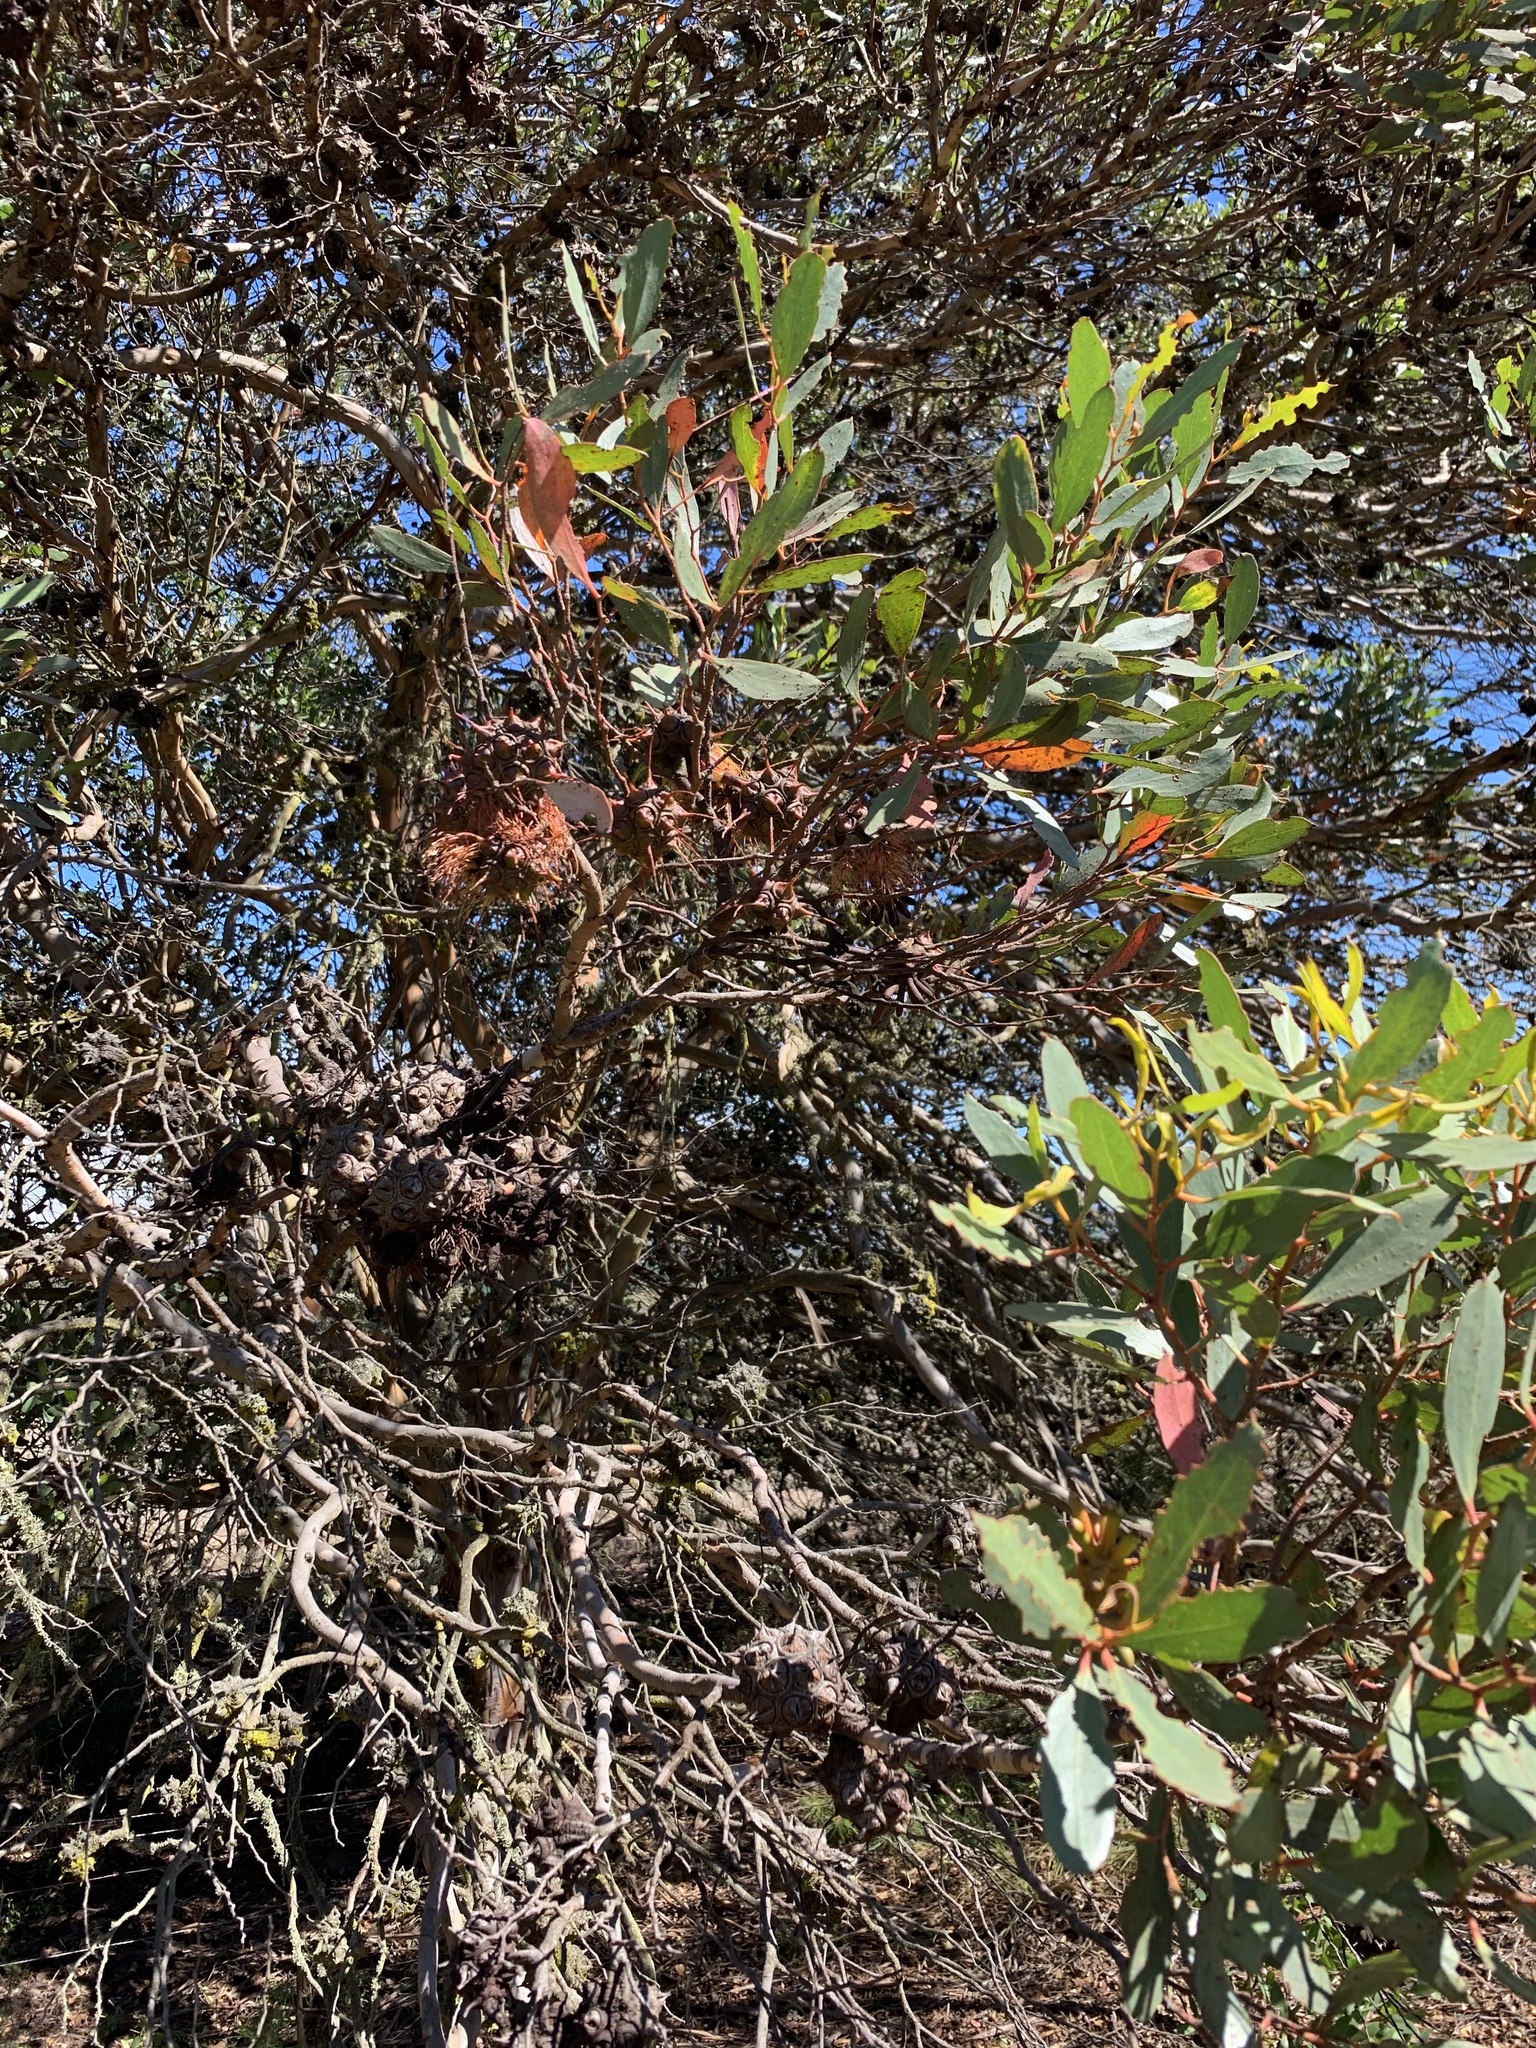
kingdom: Plantae
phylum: Tracheophyta
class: Magnoliopsida
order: Myrtales
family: Myrtaceae
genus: Eucalyptus
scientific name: Eucalyptus conferruminata
